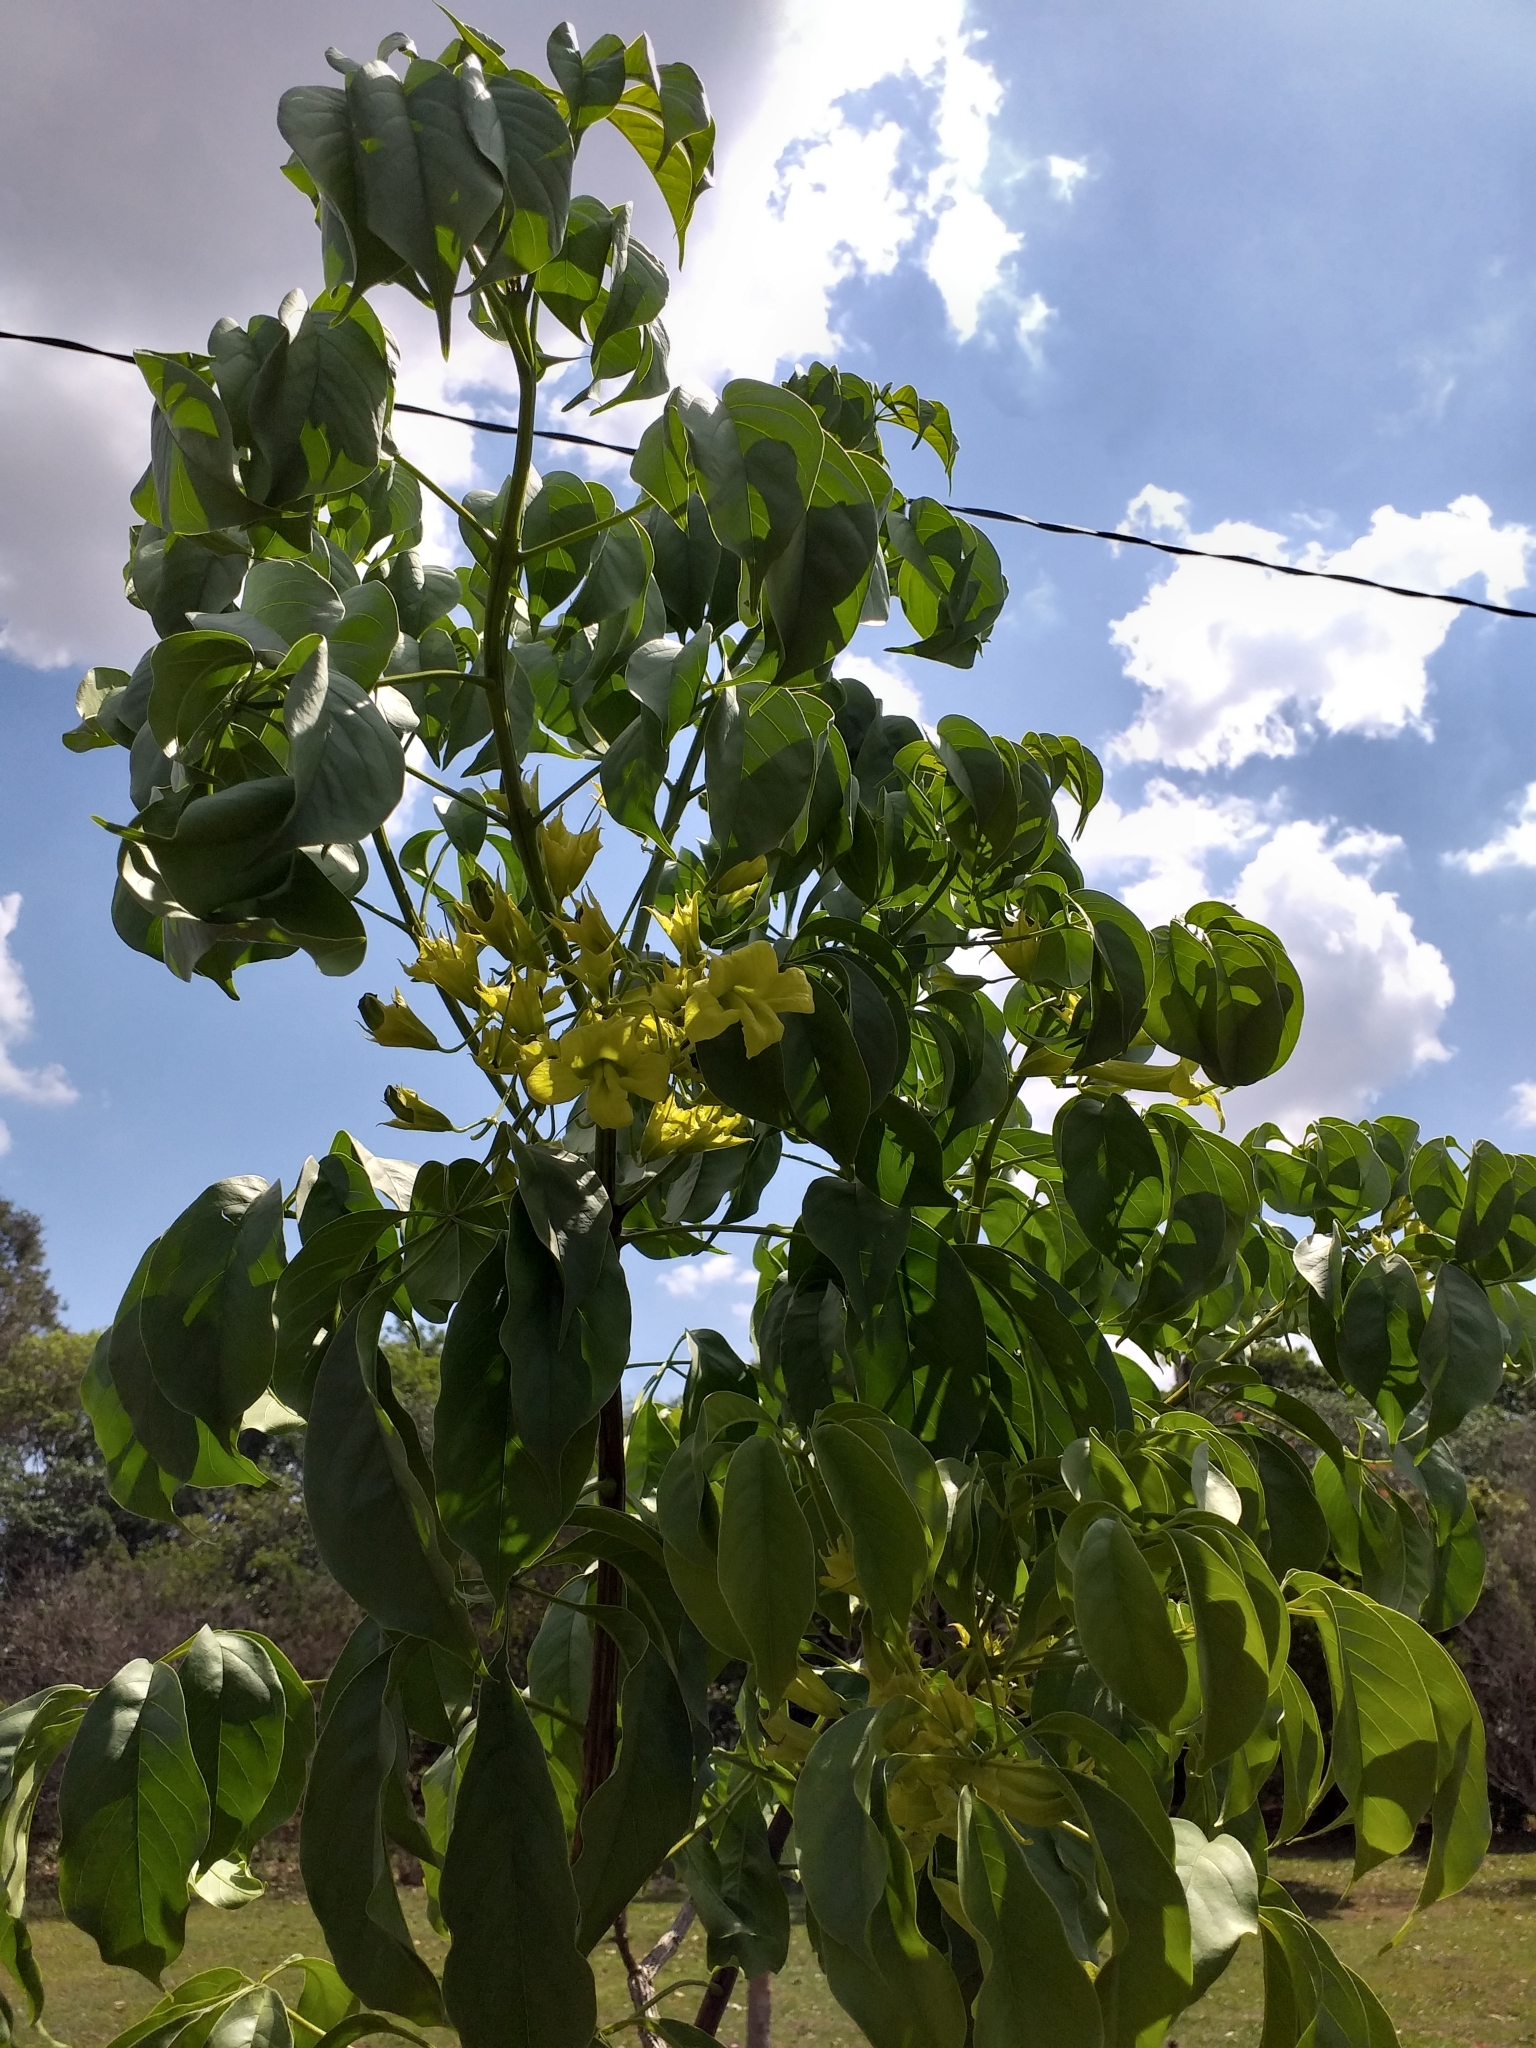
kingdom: Plantae
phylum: Tracheophyta
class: Magnoliopsida
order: Lamiales
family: Bignoniaceae
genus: Cybistax
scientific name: Cybistax antisyphilitica
